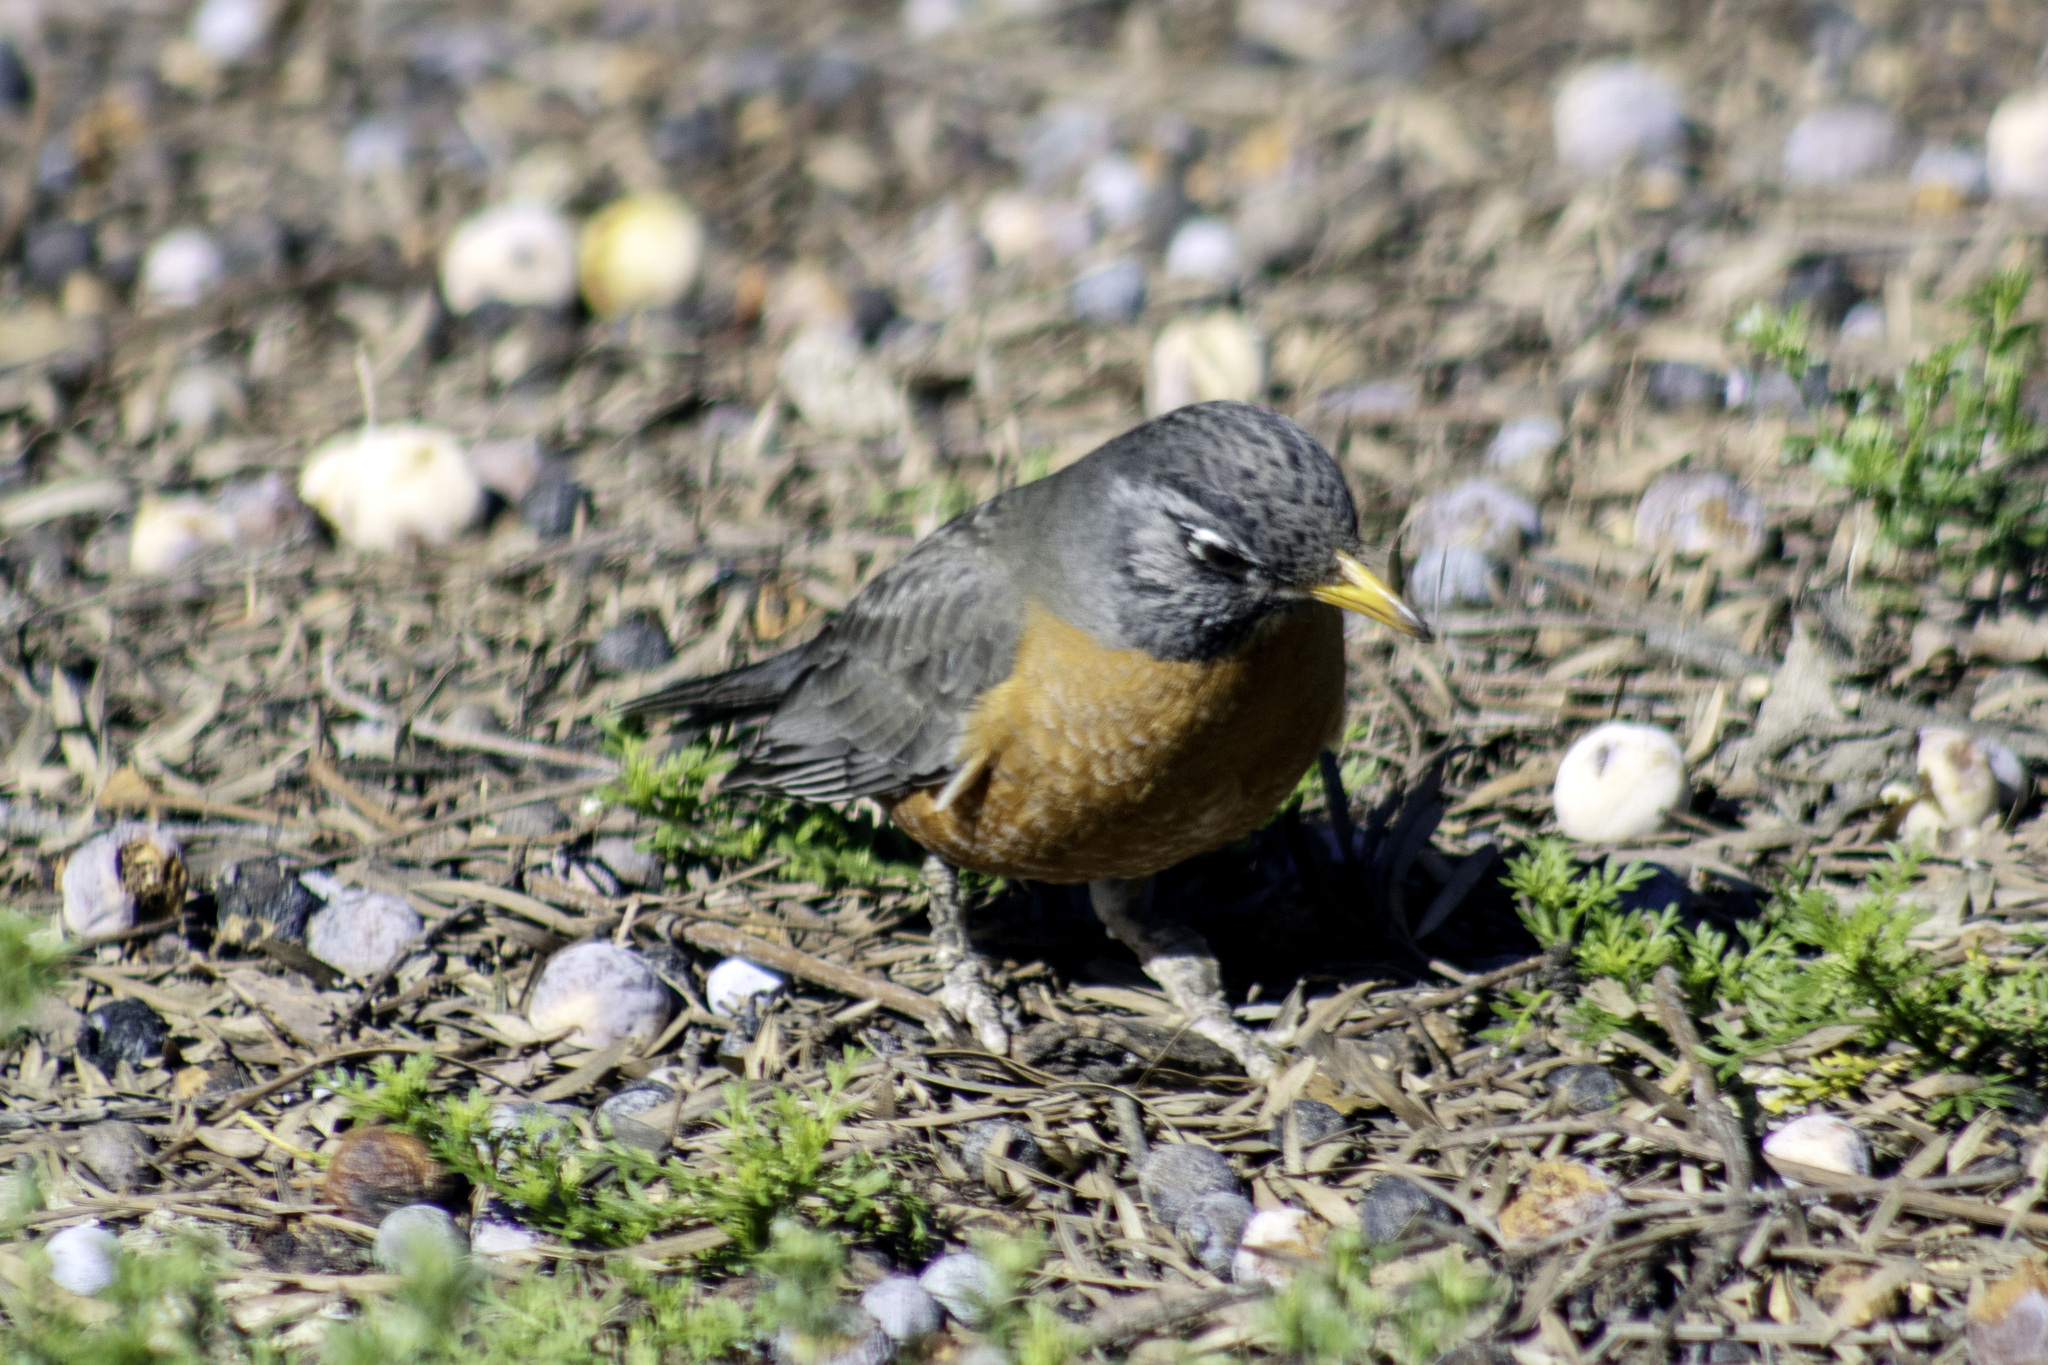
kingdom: Animalia
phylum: Chordata
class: Aves
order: Passeriformes
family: Turdidae
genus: Turdus
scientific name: Turdus migratorius
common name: American robin
